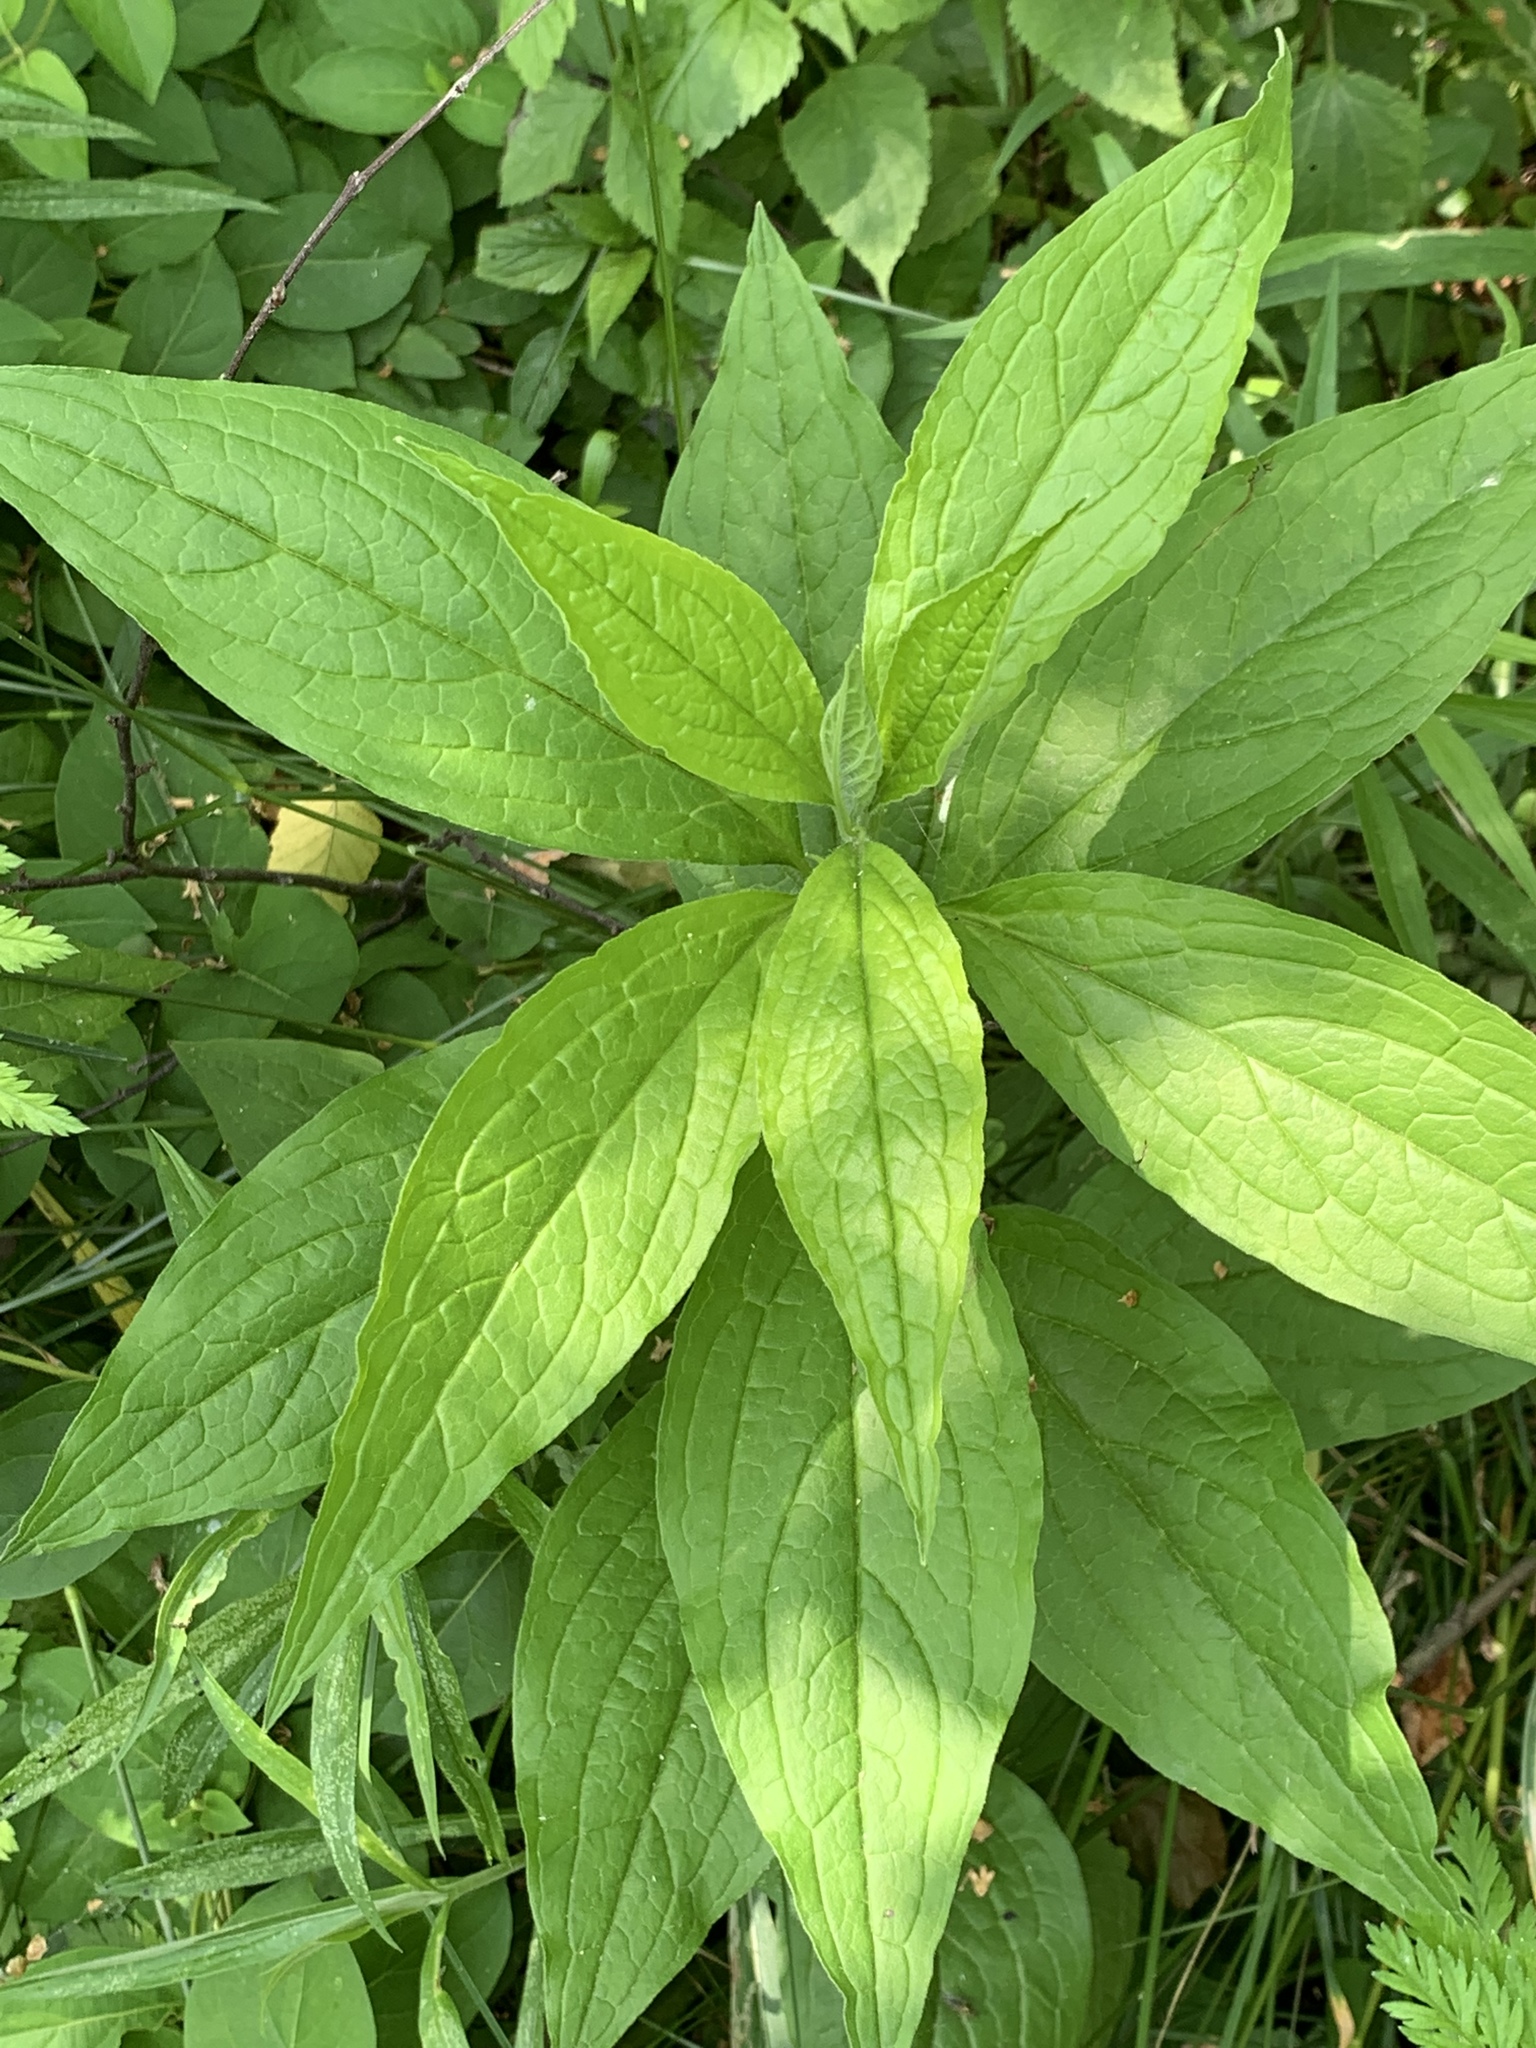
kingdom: Plantae
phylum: Tracheophyta
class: Magnoliopsida
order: Boraginales
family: Boraginaceae
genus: Hackelia
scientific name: Hackelia virginiana
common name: Beggar's-lice
